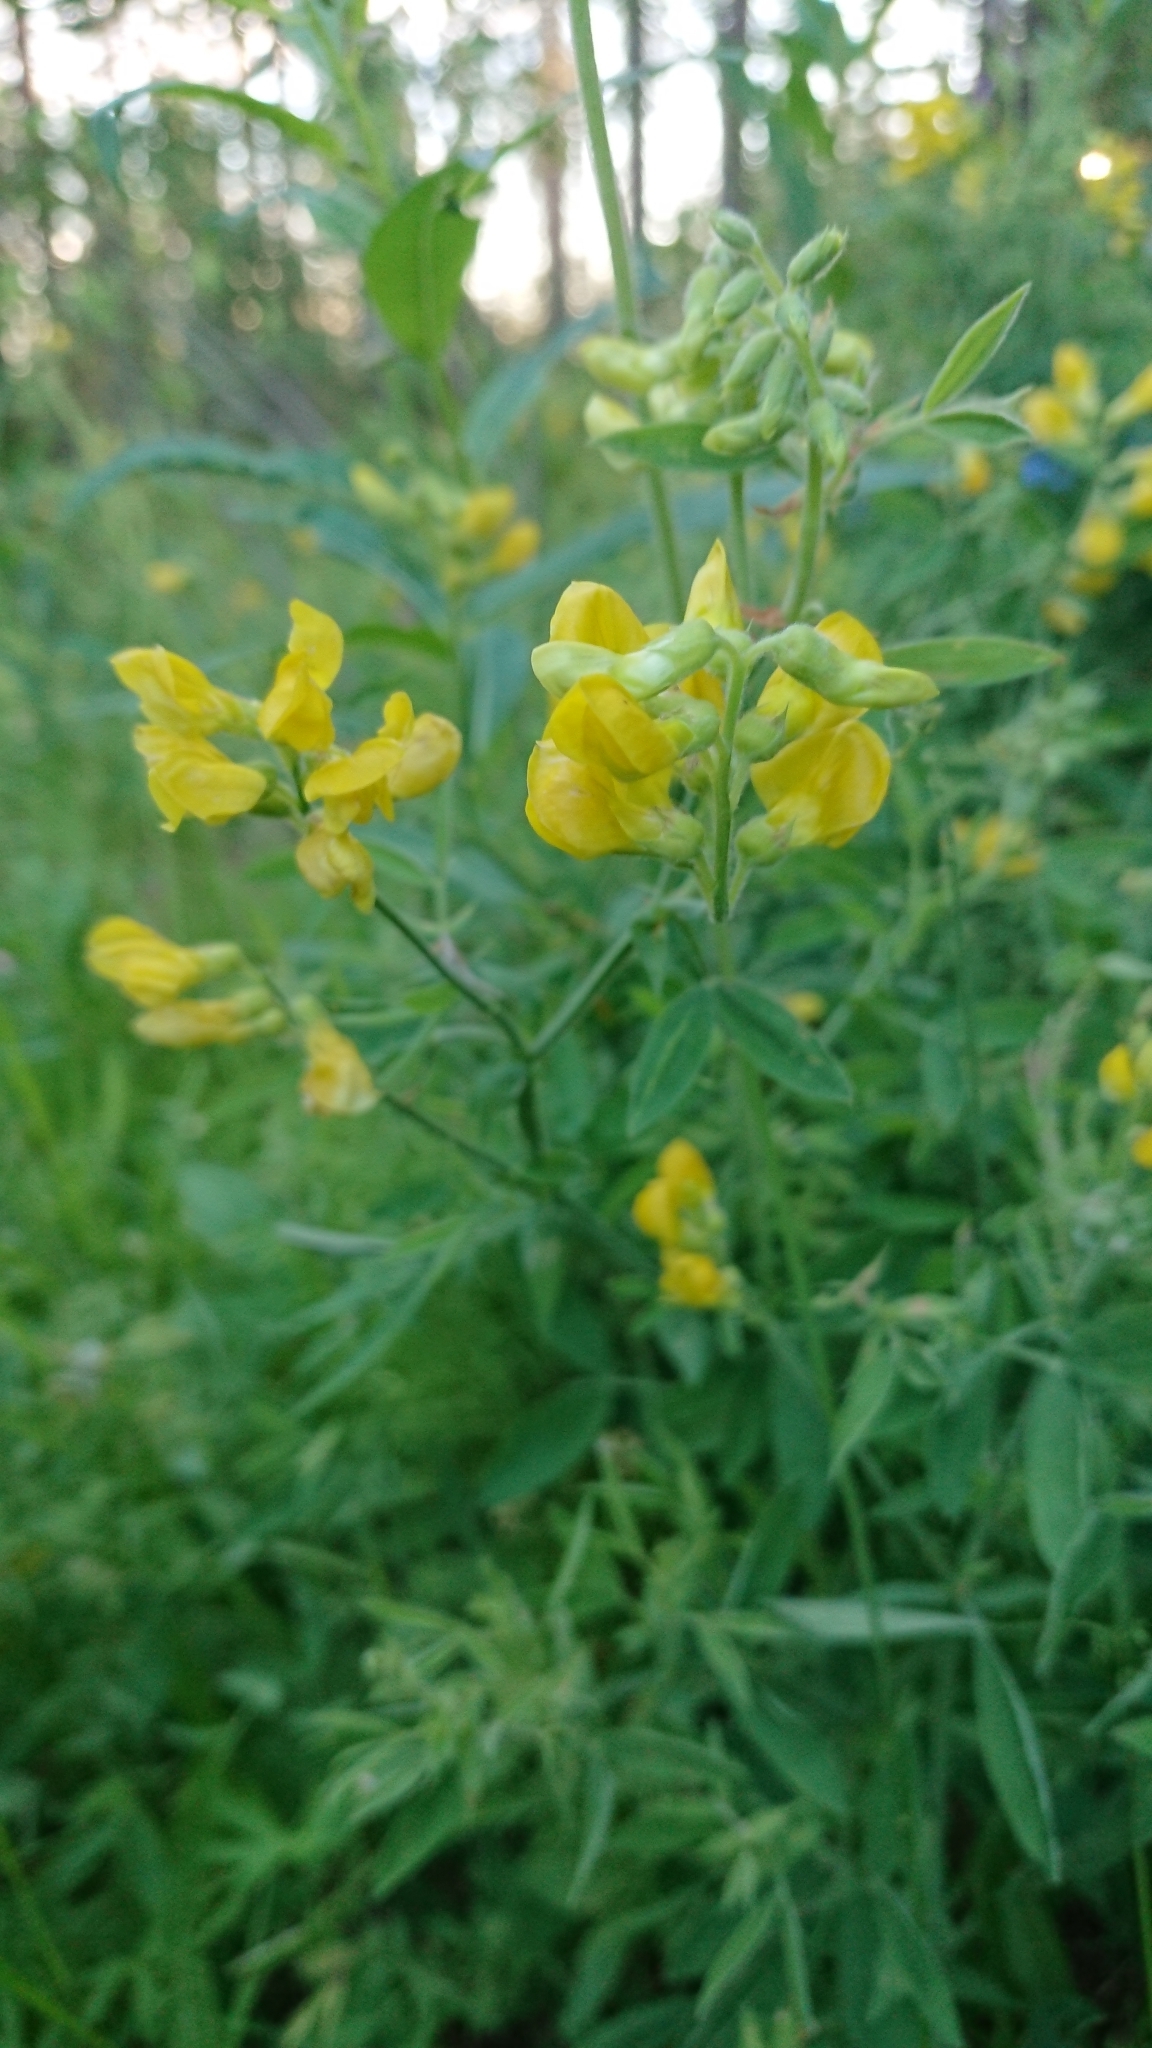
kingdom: Plantae
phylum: Tracheophyta
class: Magnoliopsida
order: Fabales
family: Fabaceae
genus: Lathyrus
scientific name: Lathyrus pratensis
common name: Meadow vetchling
